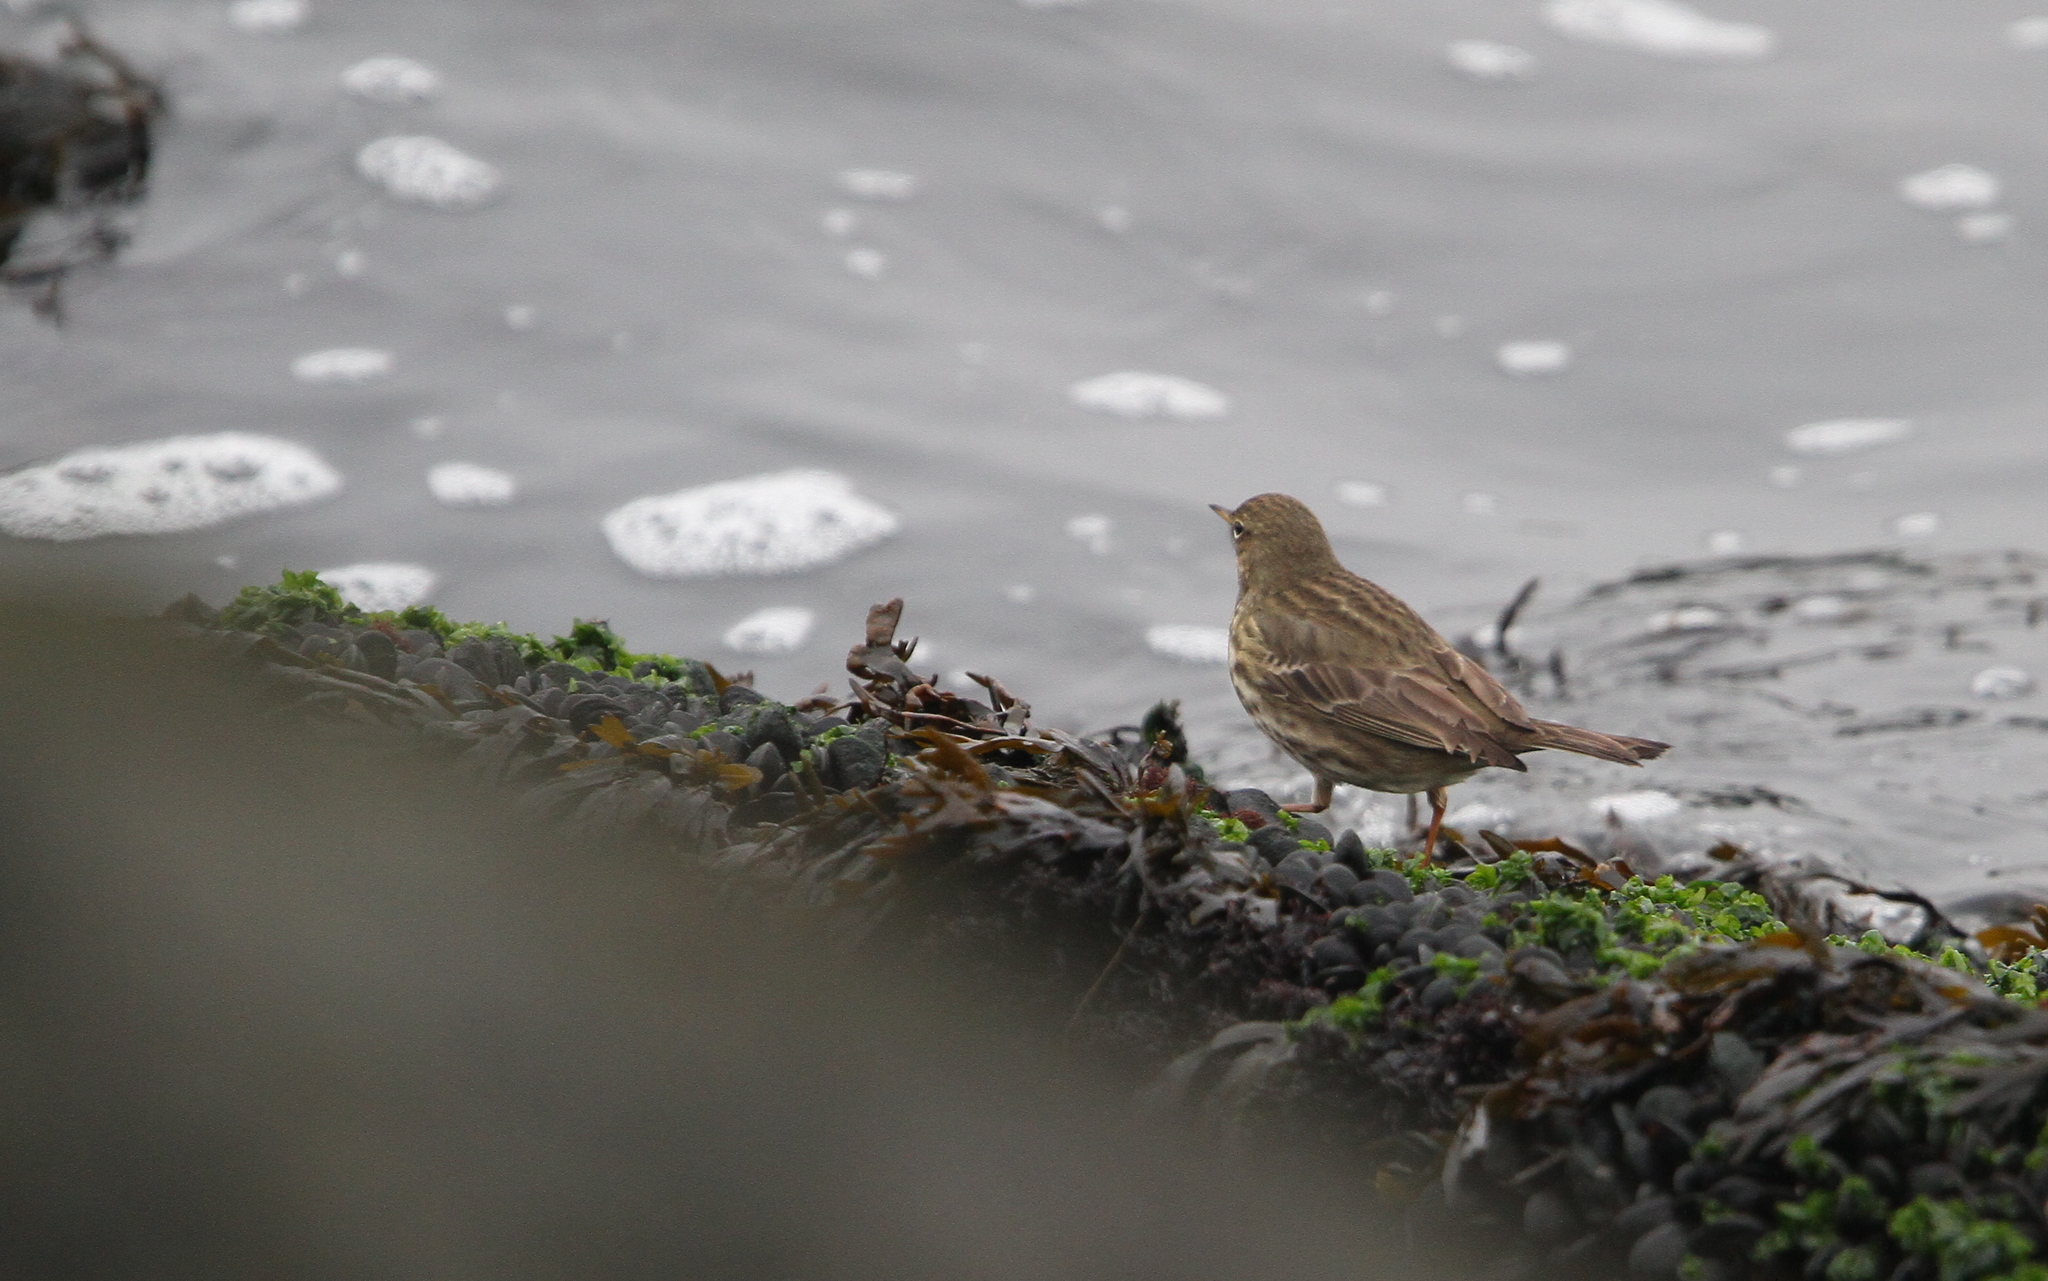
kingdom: Animalia
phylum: Chordata
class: Aves
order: Passeriformes
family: Motacillidae
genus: Anthus
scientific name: Anthus petrosus
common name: Eurasian rock pipit
